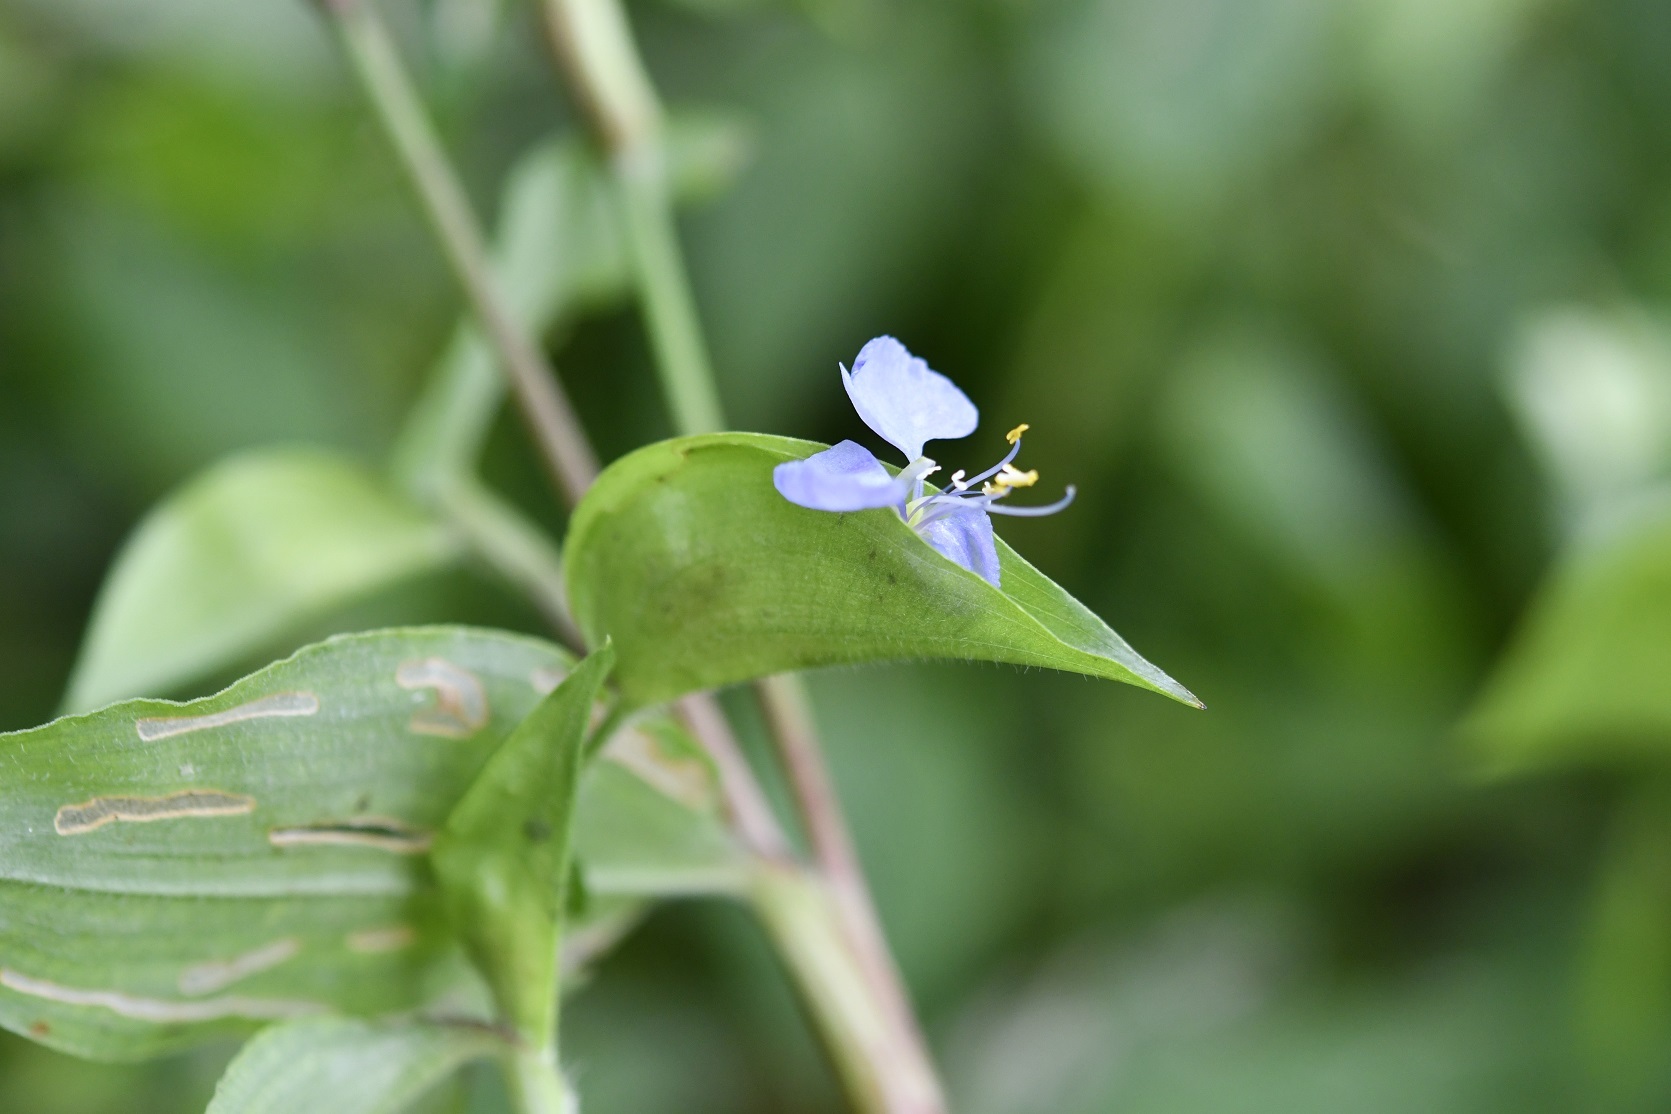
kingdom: Plantae
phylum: Tracheophyta
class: Liliopsida
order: Commelinales
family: Commelinaceae
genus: Commelina
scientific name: Commelina diffusa
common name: Climbing dayflower
